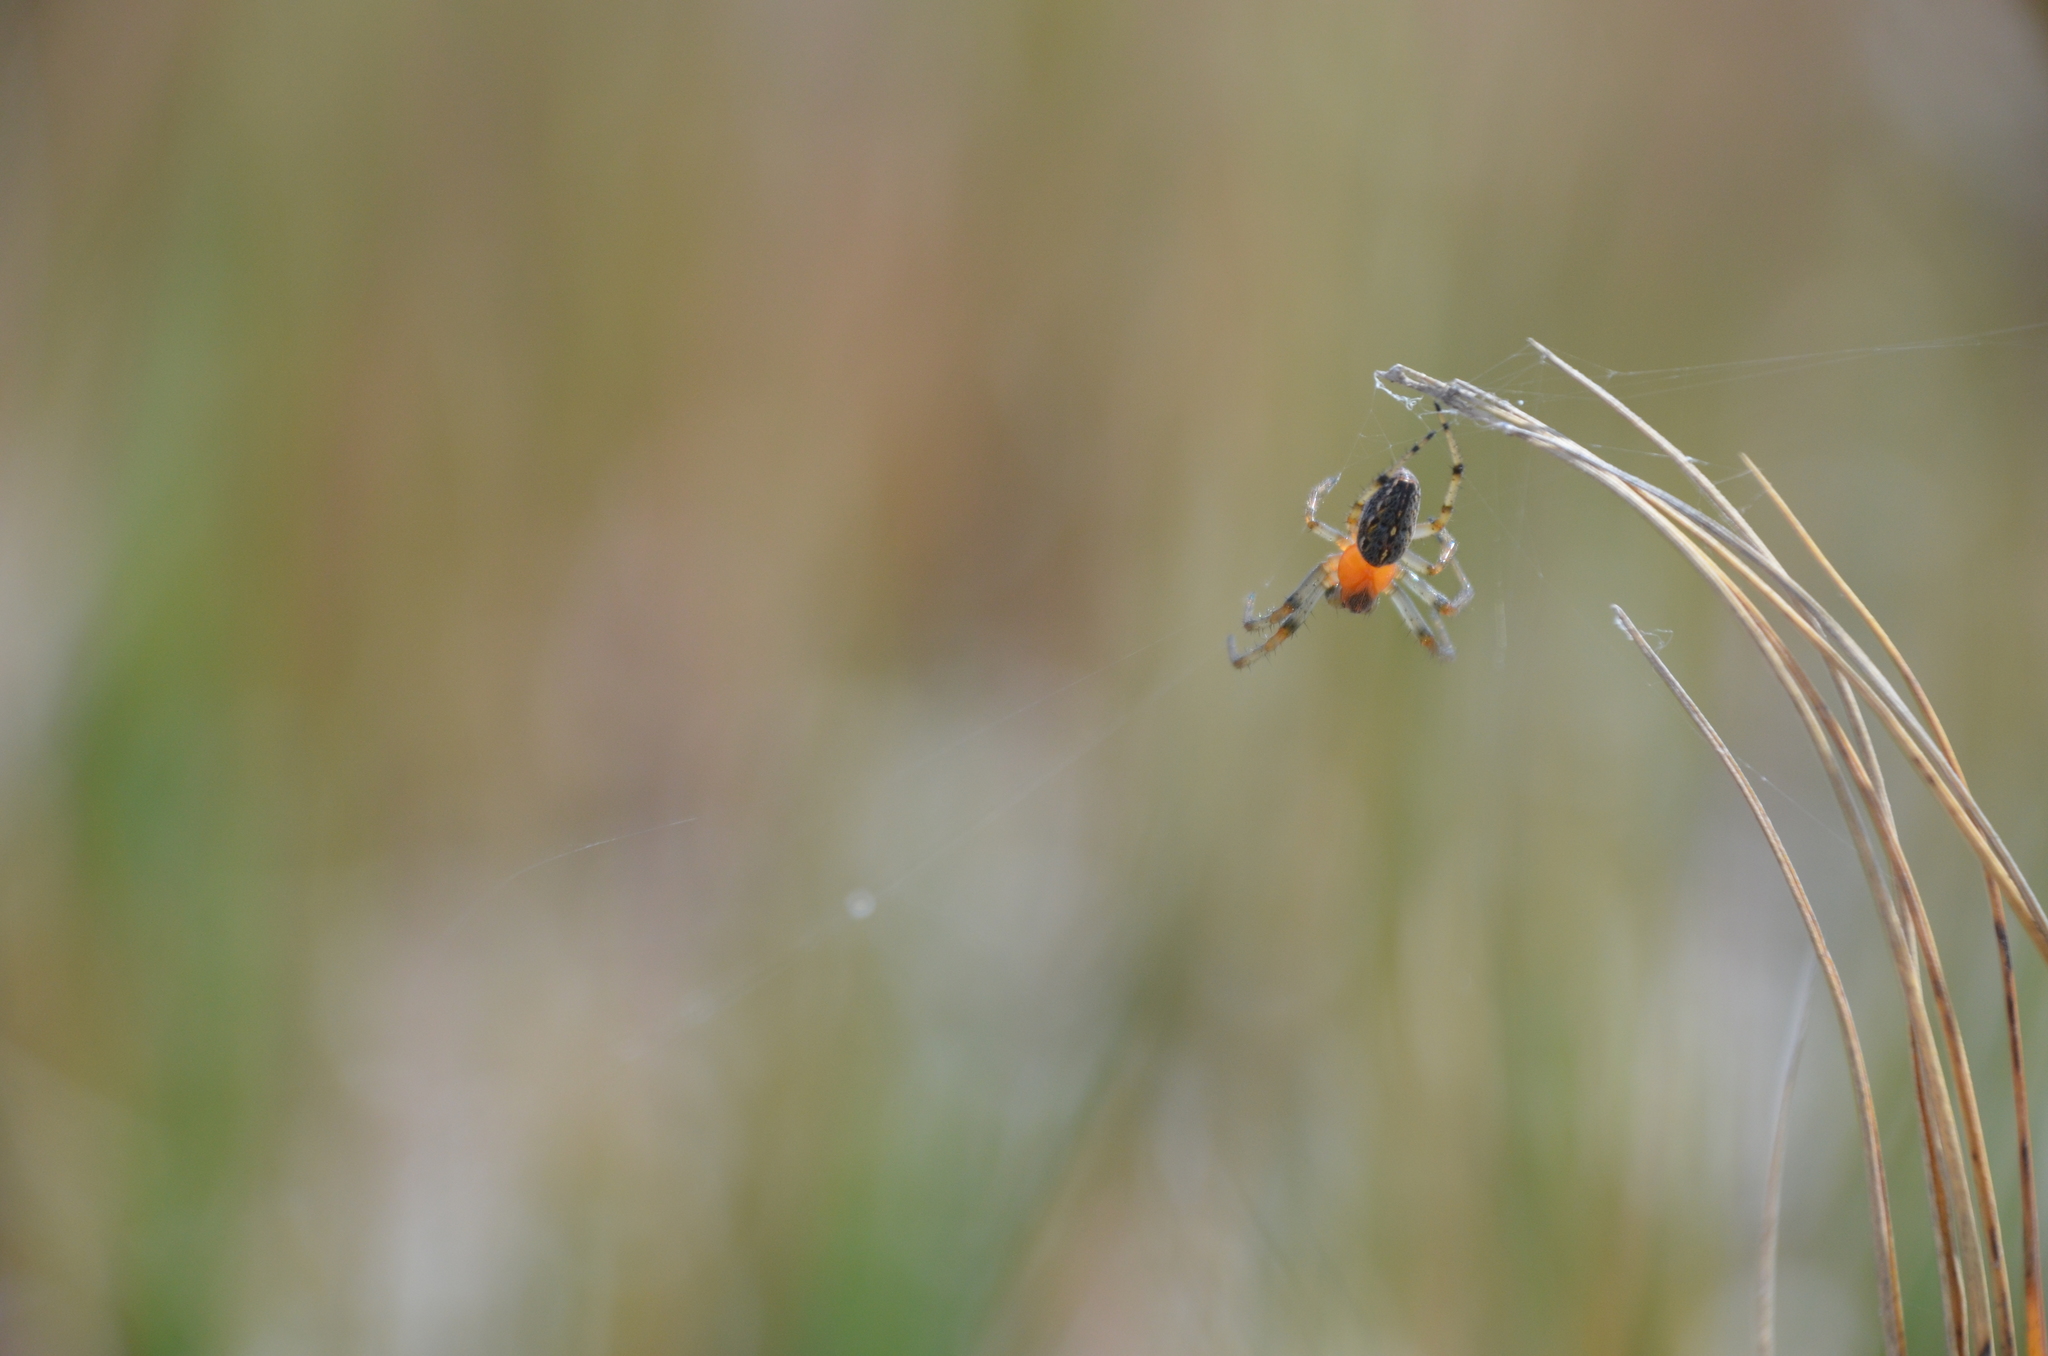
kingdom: Animalia
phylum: Arthropoda
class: Arachnida
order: Araneae
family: Araneidae
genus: Alpaida
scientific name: Alpaida veniliae
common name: Orb weavers
